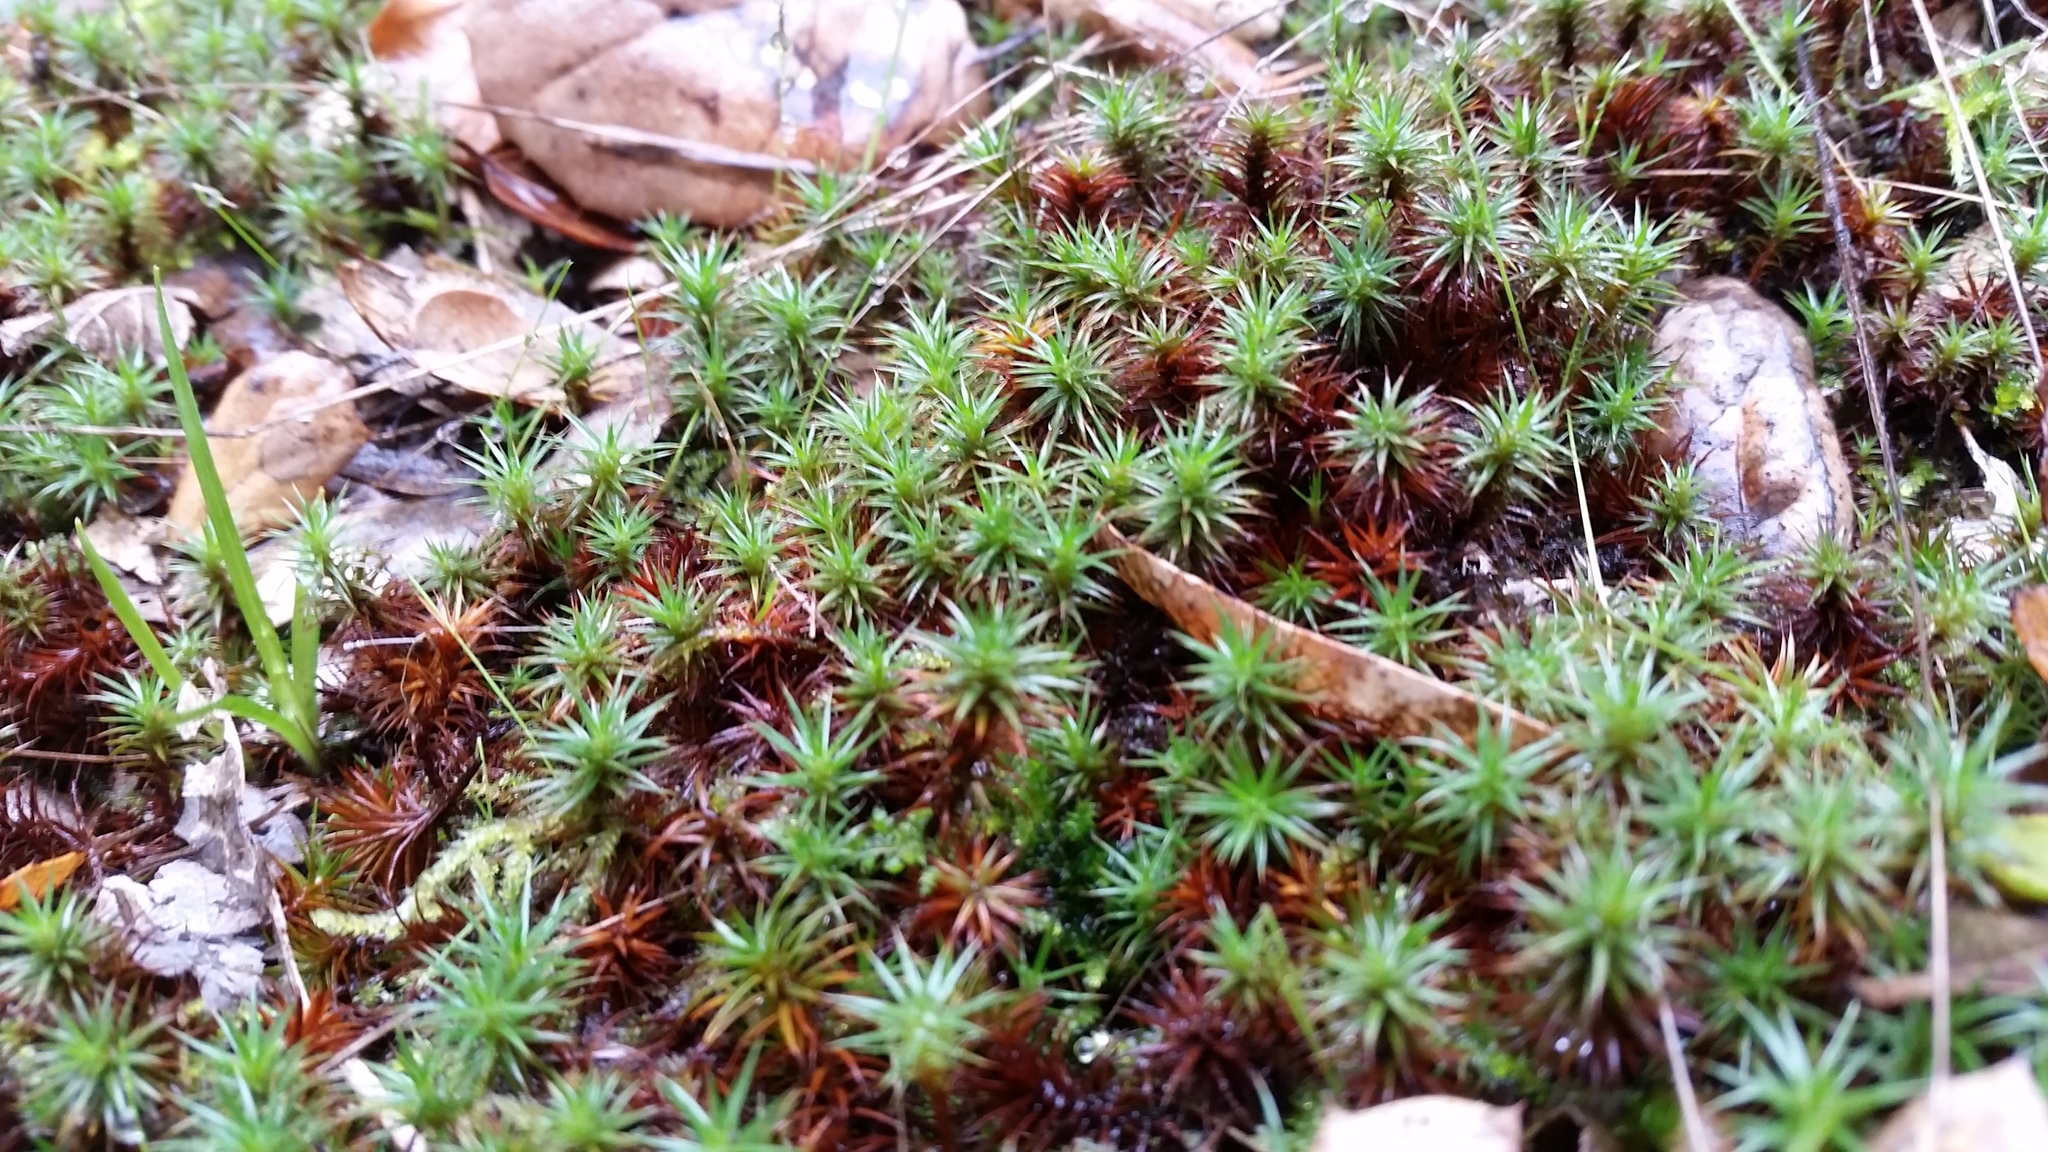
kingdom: Plantae
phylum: Bryophyta
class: Polytrichopsida
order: Polytrichales
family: Polytrichaceae
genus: Polytrichum
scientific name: Polytrichum juniperinum
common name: Juniper haircap moss
